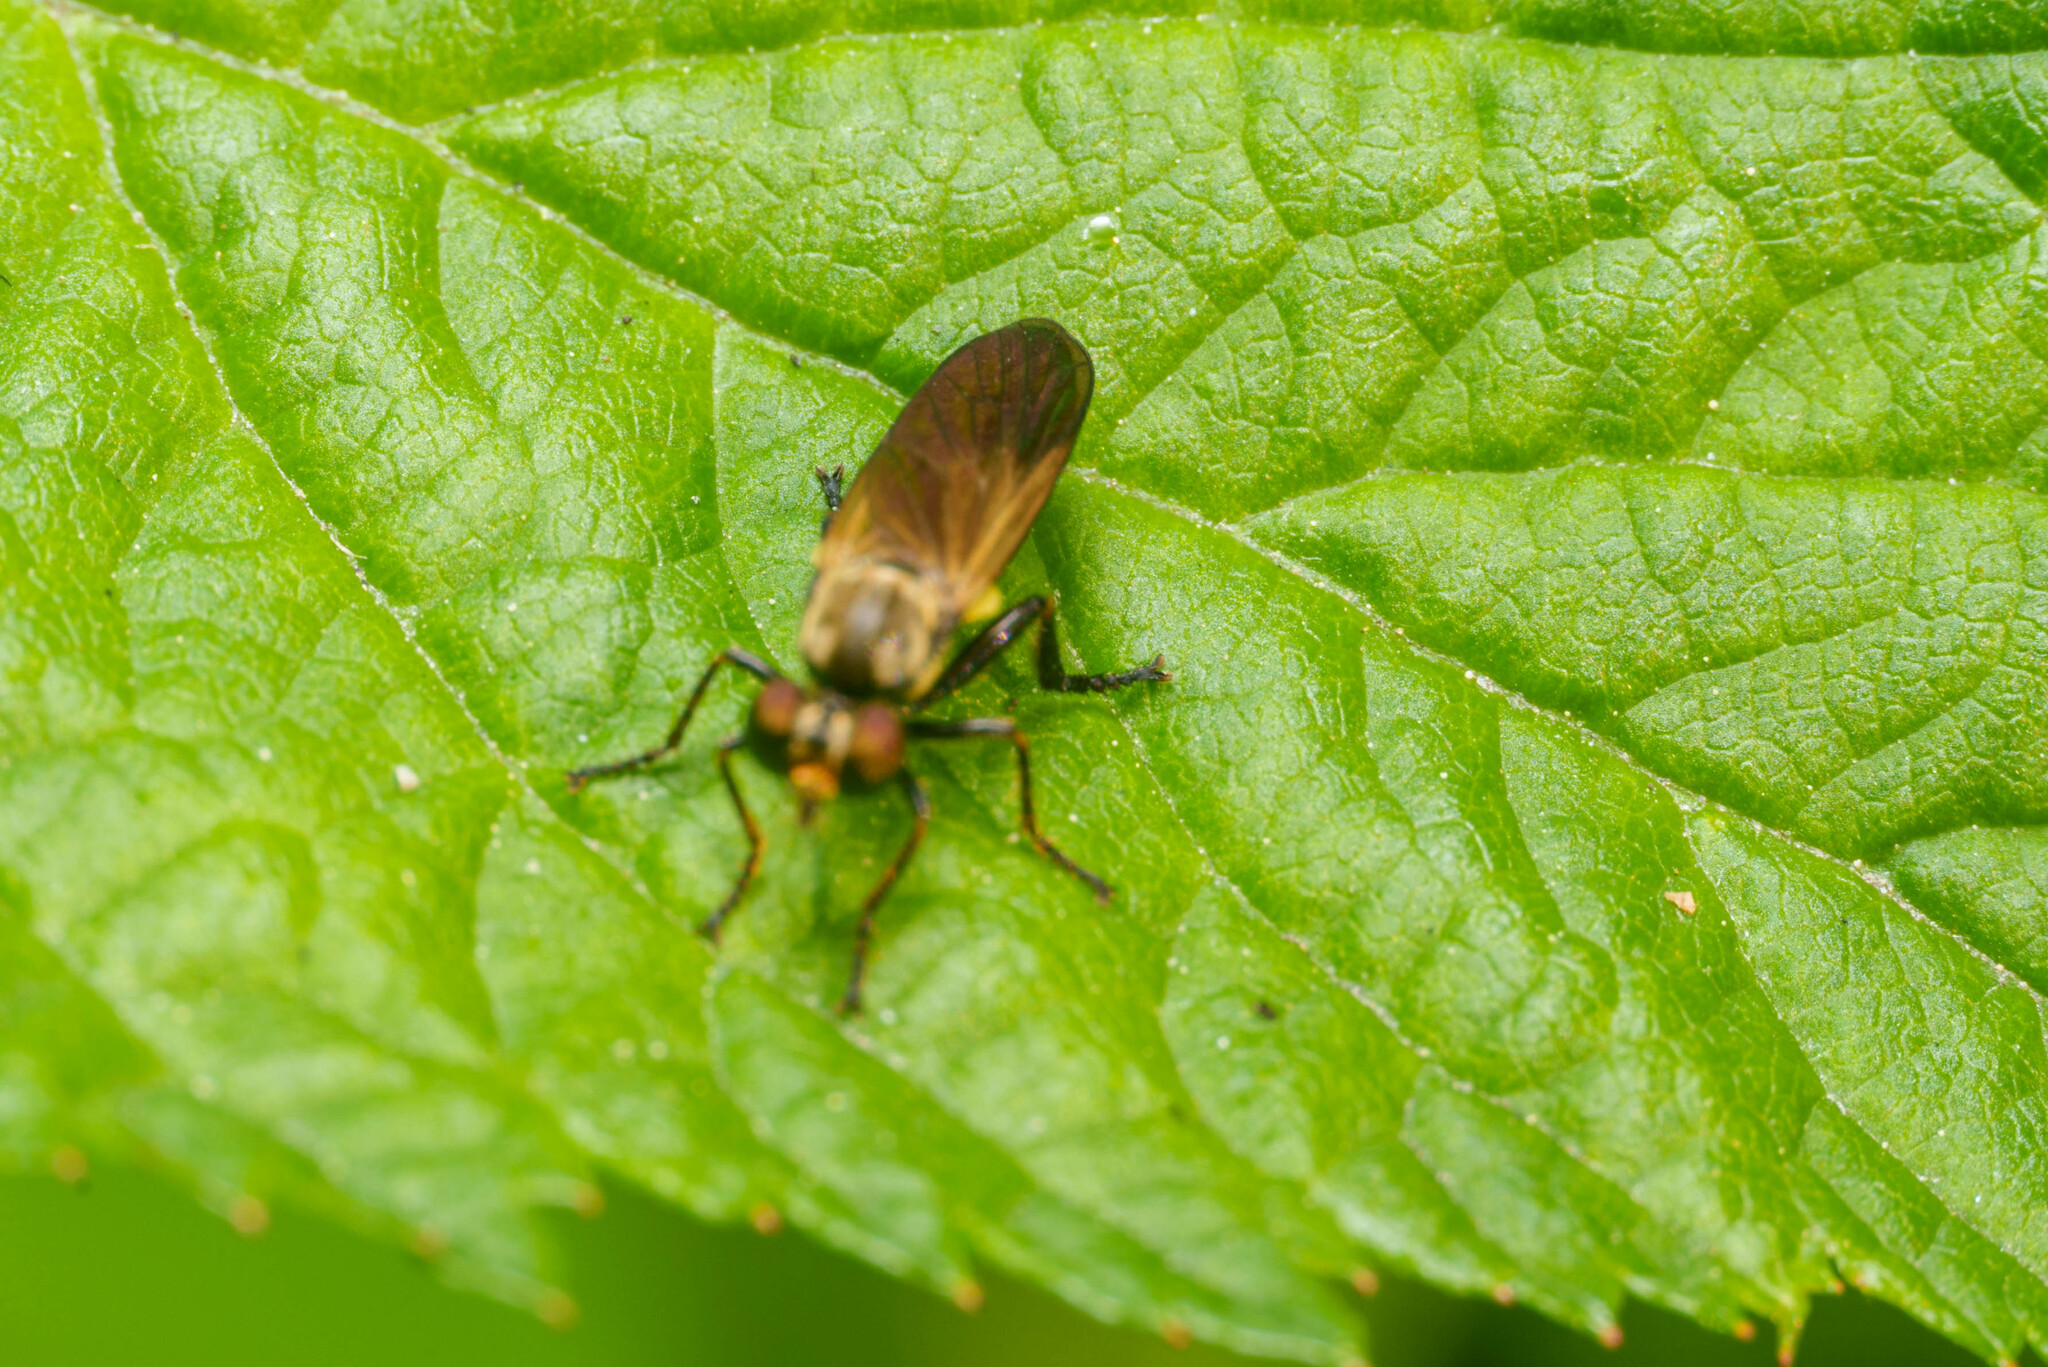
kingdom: Animalia
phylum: Arthropoda
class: Insecta
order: Diptera
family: Asilidae
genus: Eudioctria
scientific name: Eudioctria sackeni
